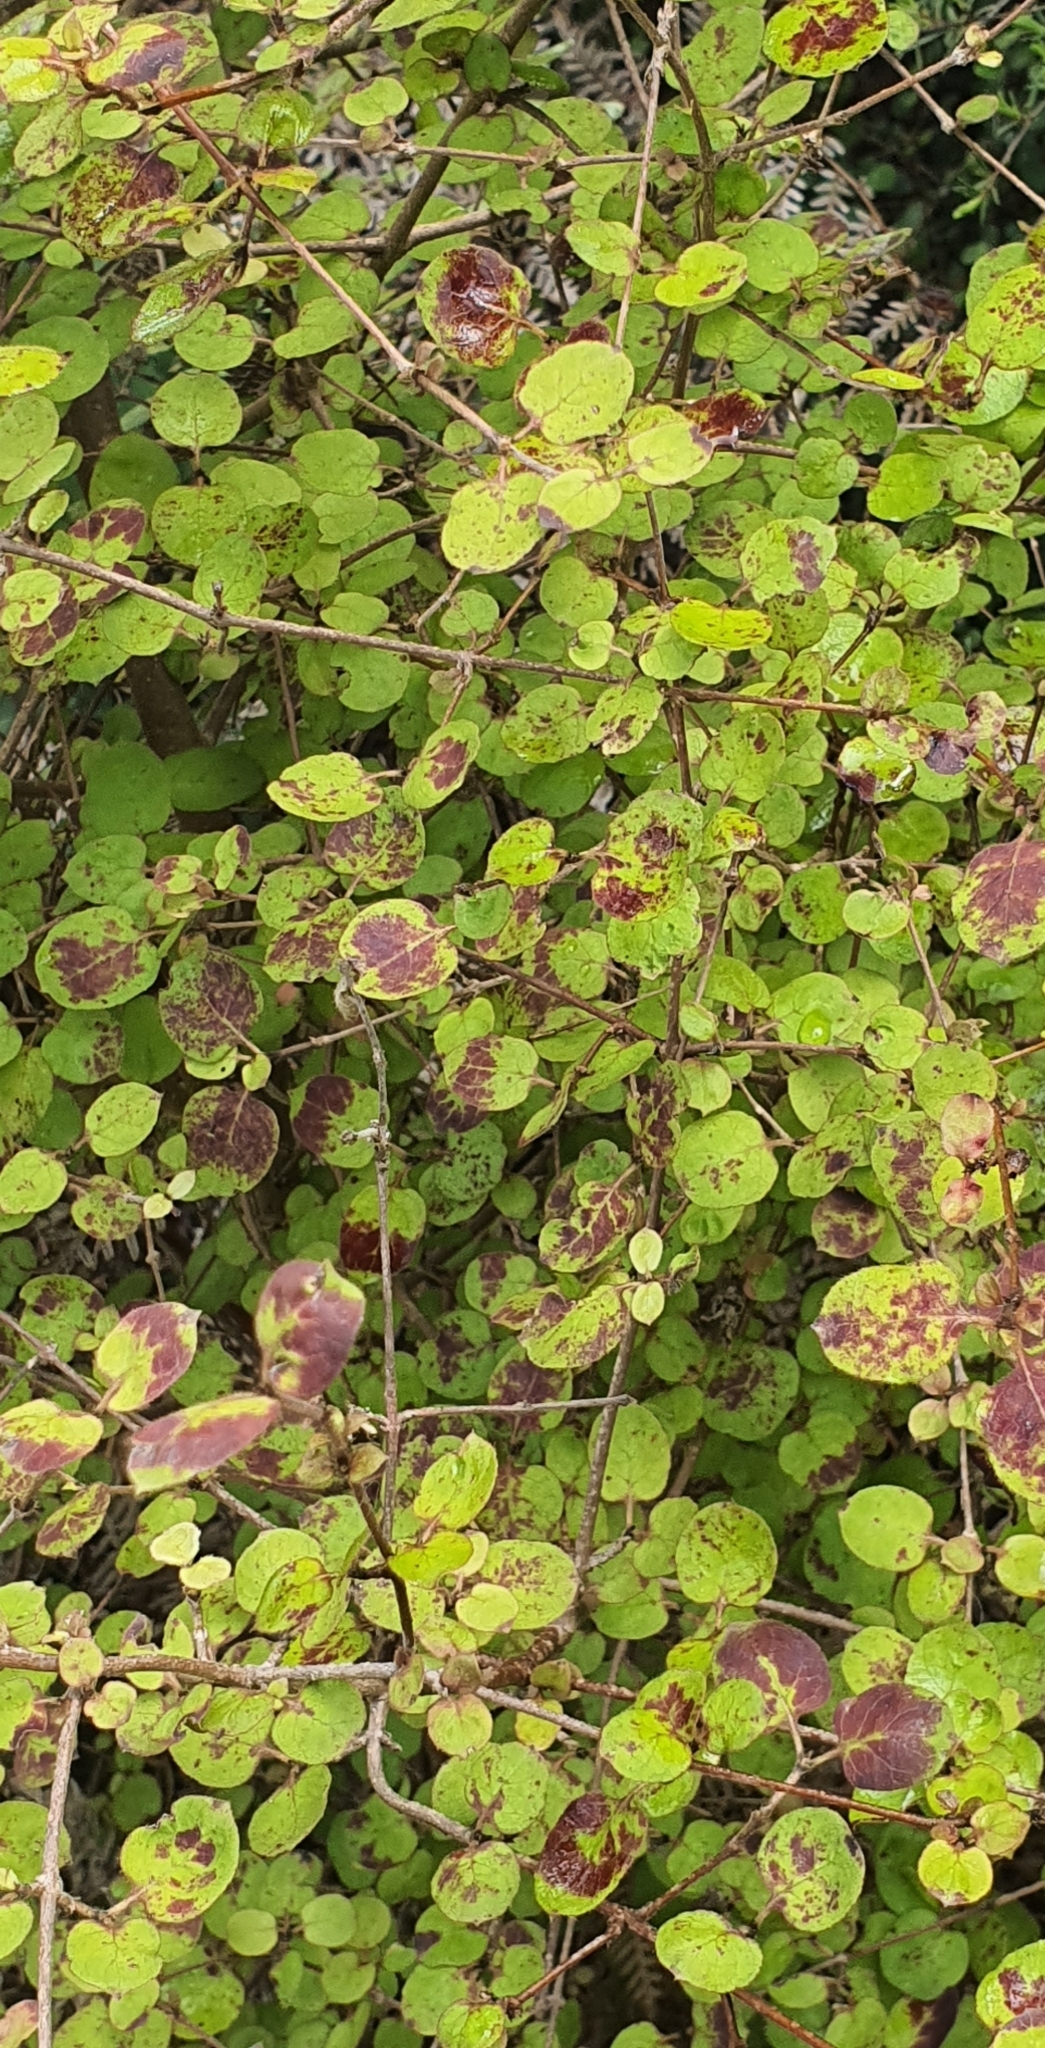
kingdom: Plantae
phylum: Tracheophyta
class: Magnoliopsida
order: Gentianales
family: Rubiaceae
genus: Coprosma
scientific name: Coprosma rotundifolia
